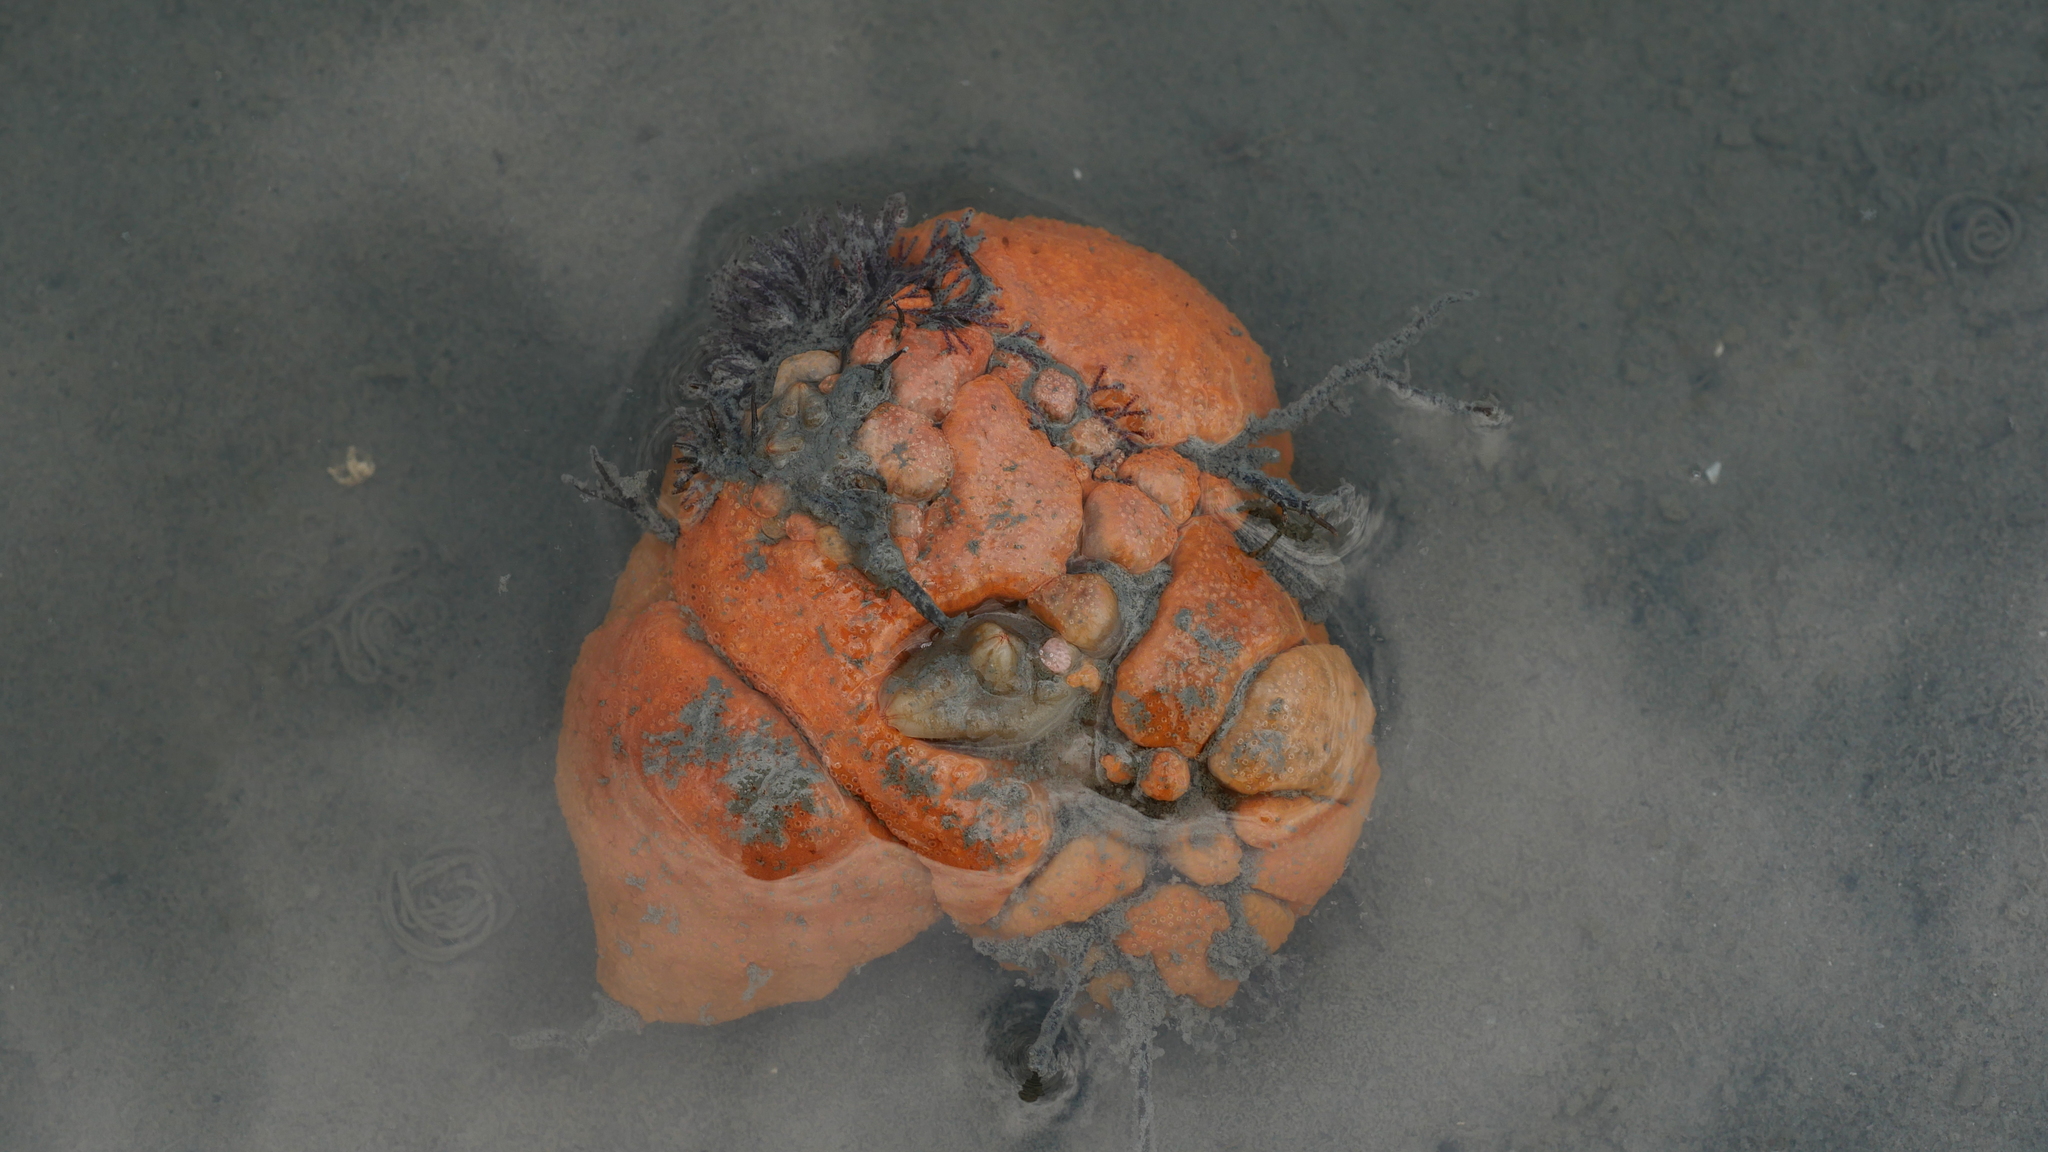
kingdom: Animalia
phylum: Chordata
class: Ascidiacea
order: Aplousobranchia
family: Polyclinidae
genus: Aplidium
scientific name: Aplidium stellatum
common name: Atlantic sea pork
